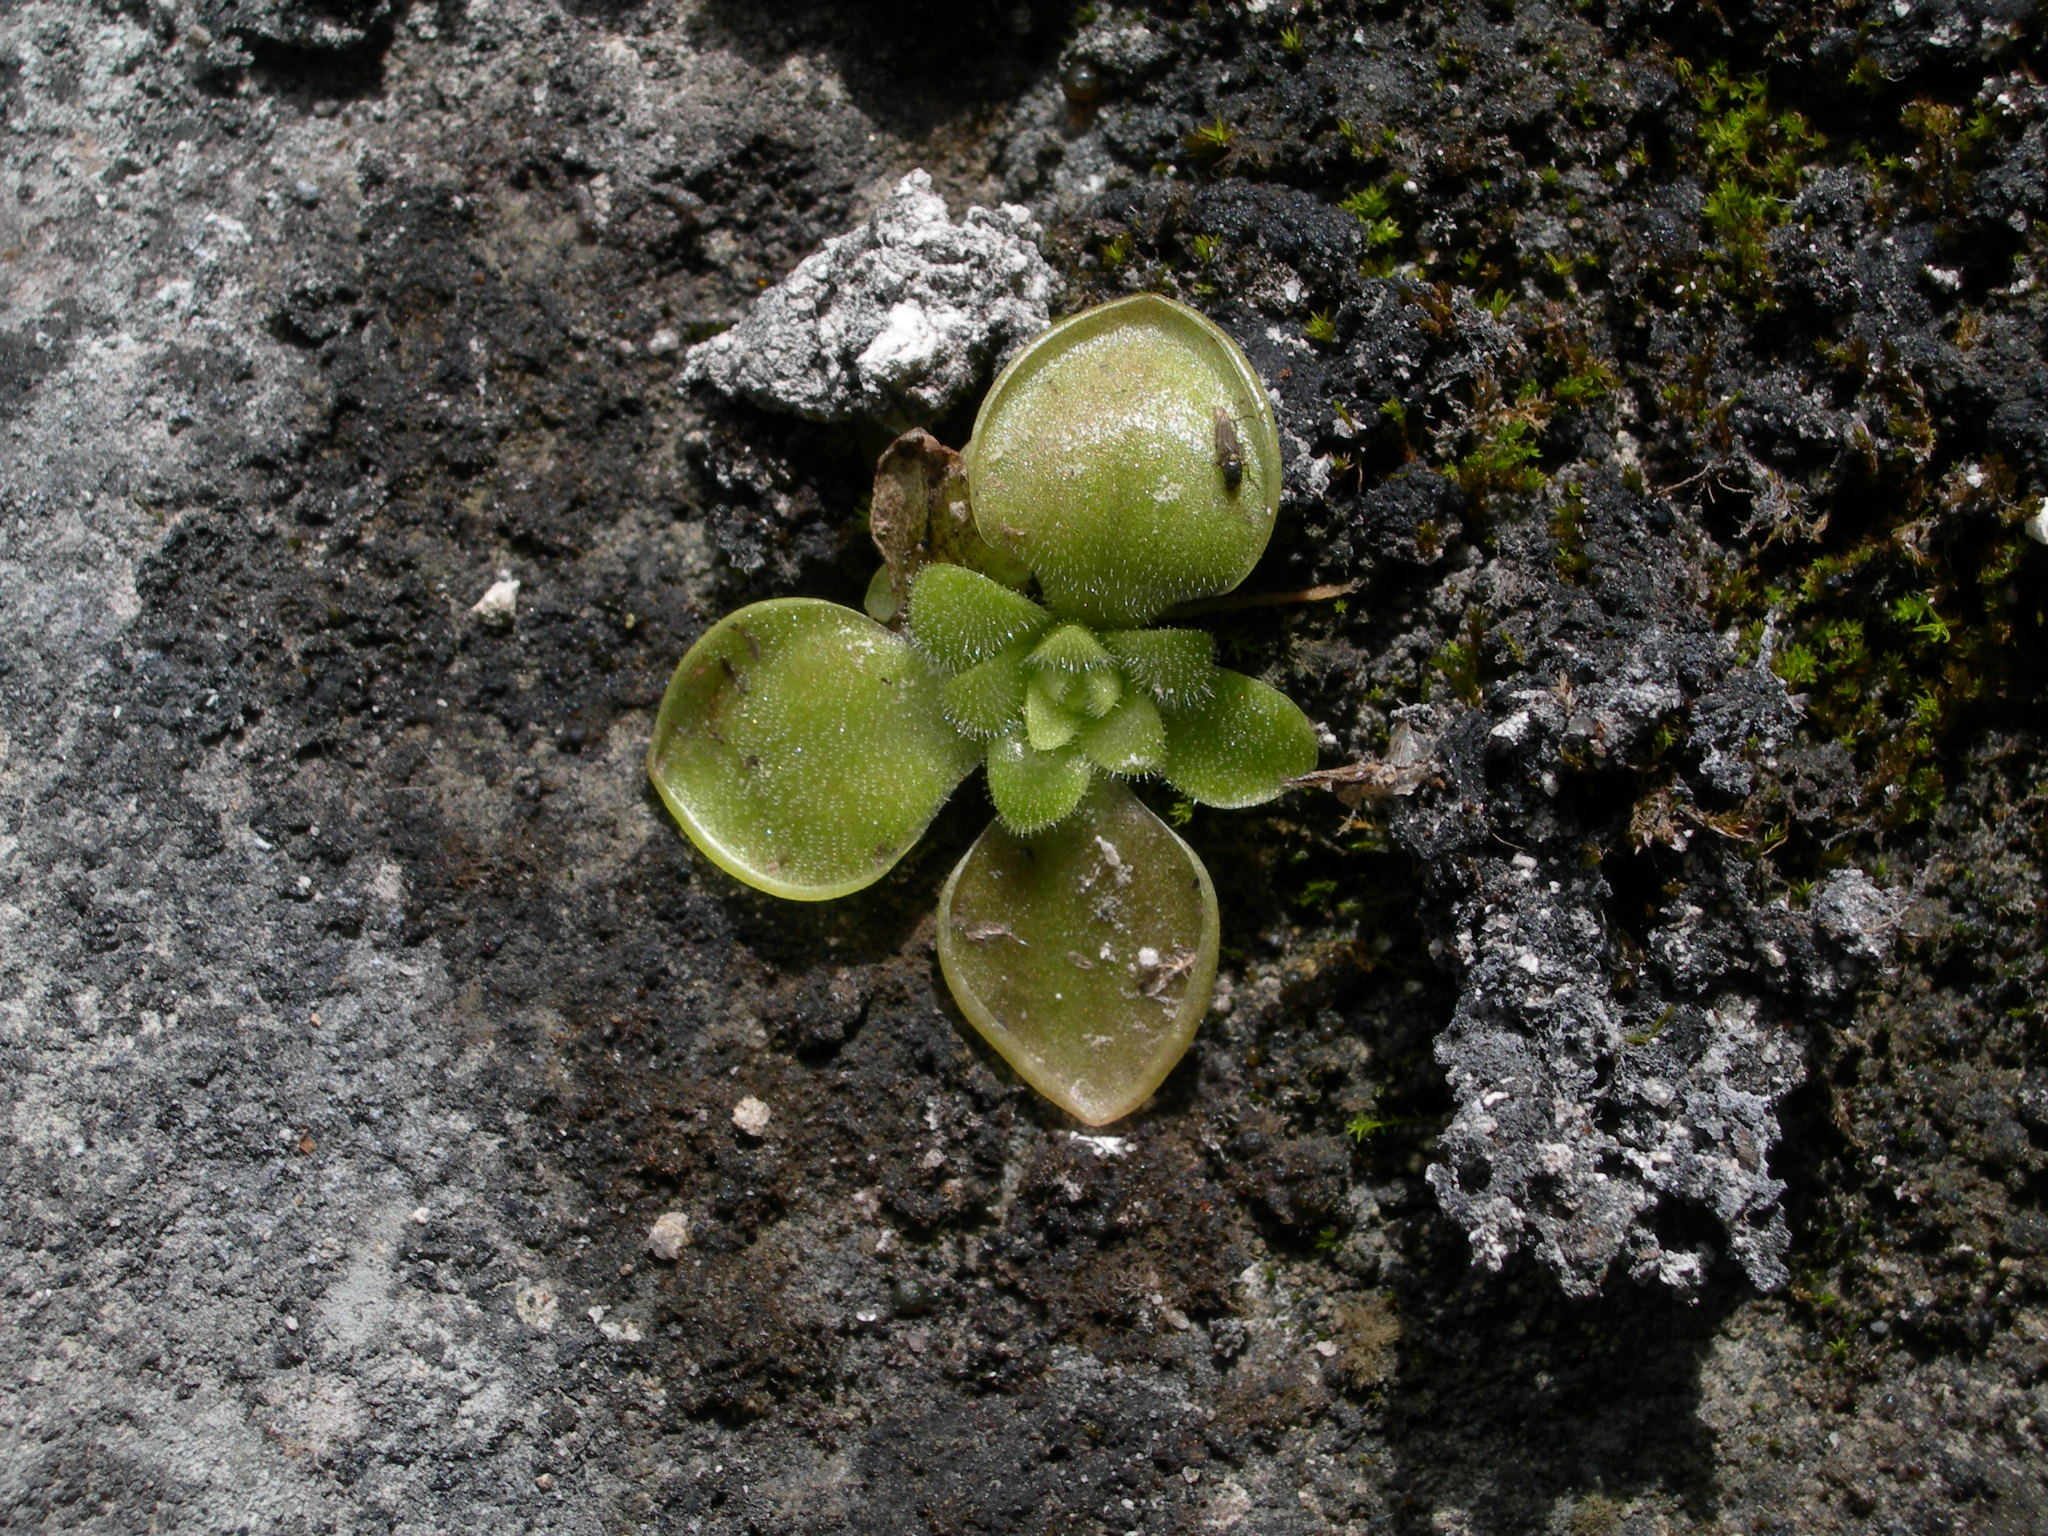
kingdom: Plantae
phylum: Tracheophyta
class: Magnoliopsida
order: Lamiales
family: Lentibulariaceae
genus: Pinguicula
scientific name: Pinguicula moranensis
